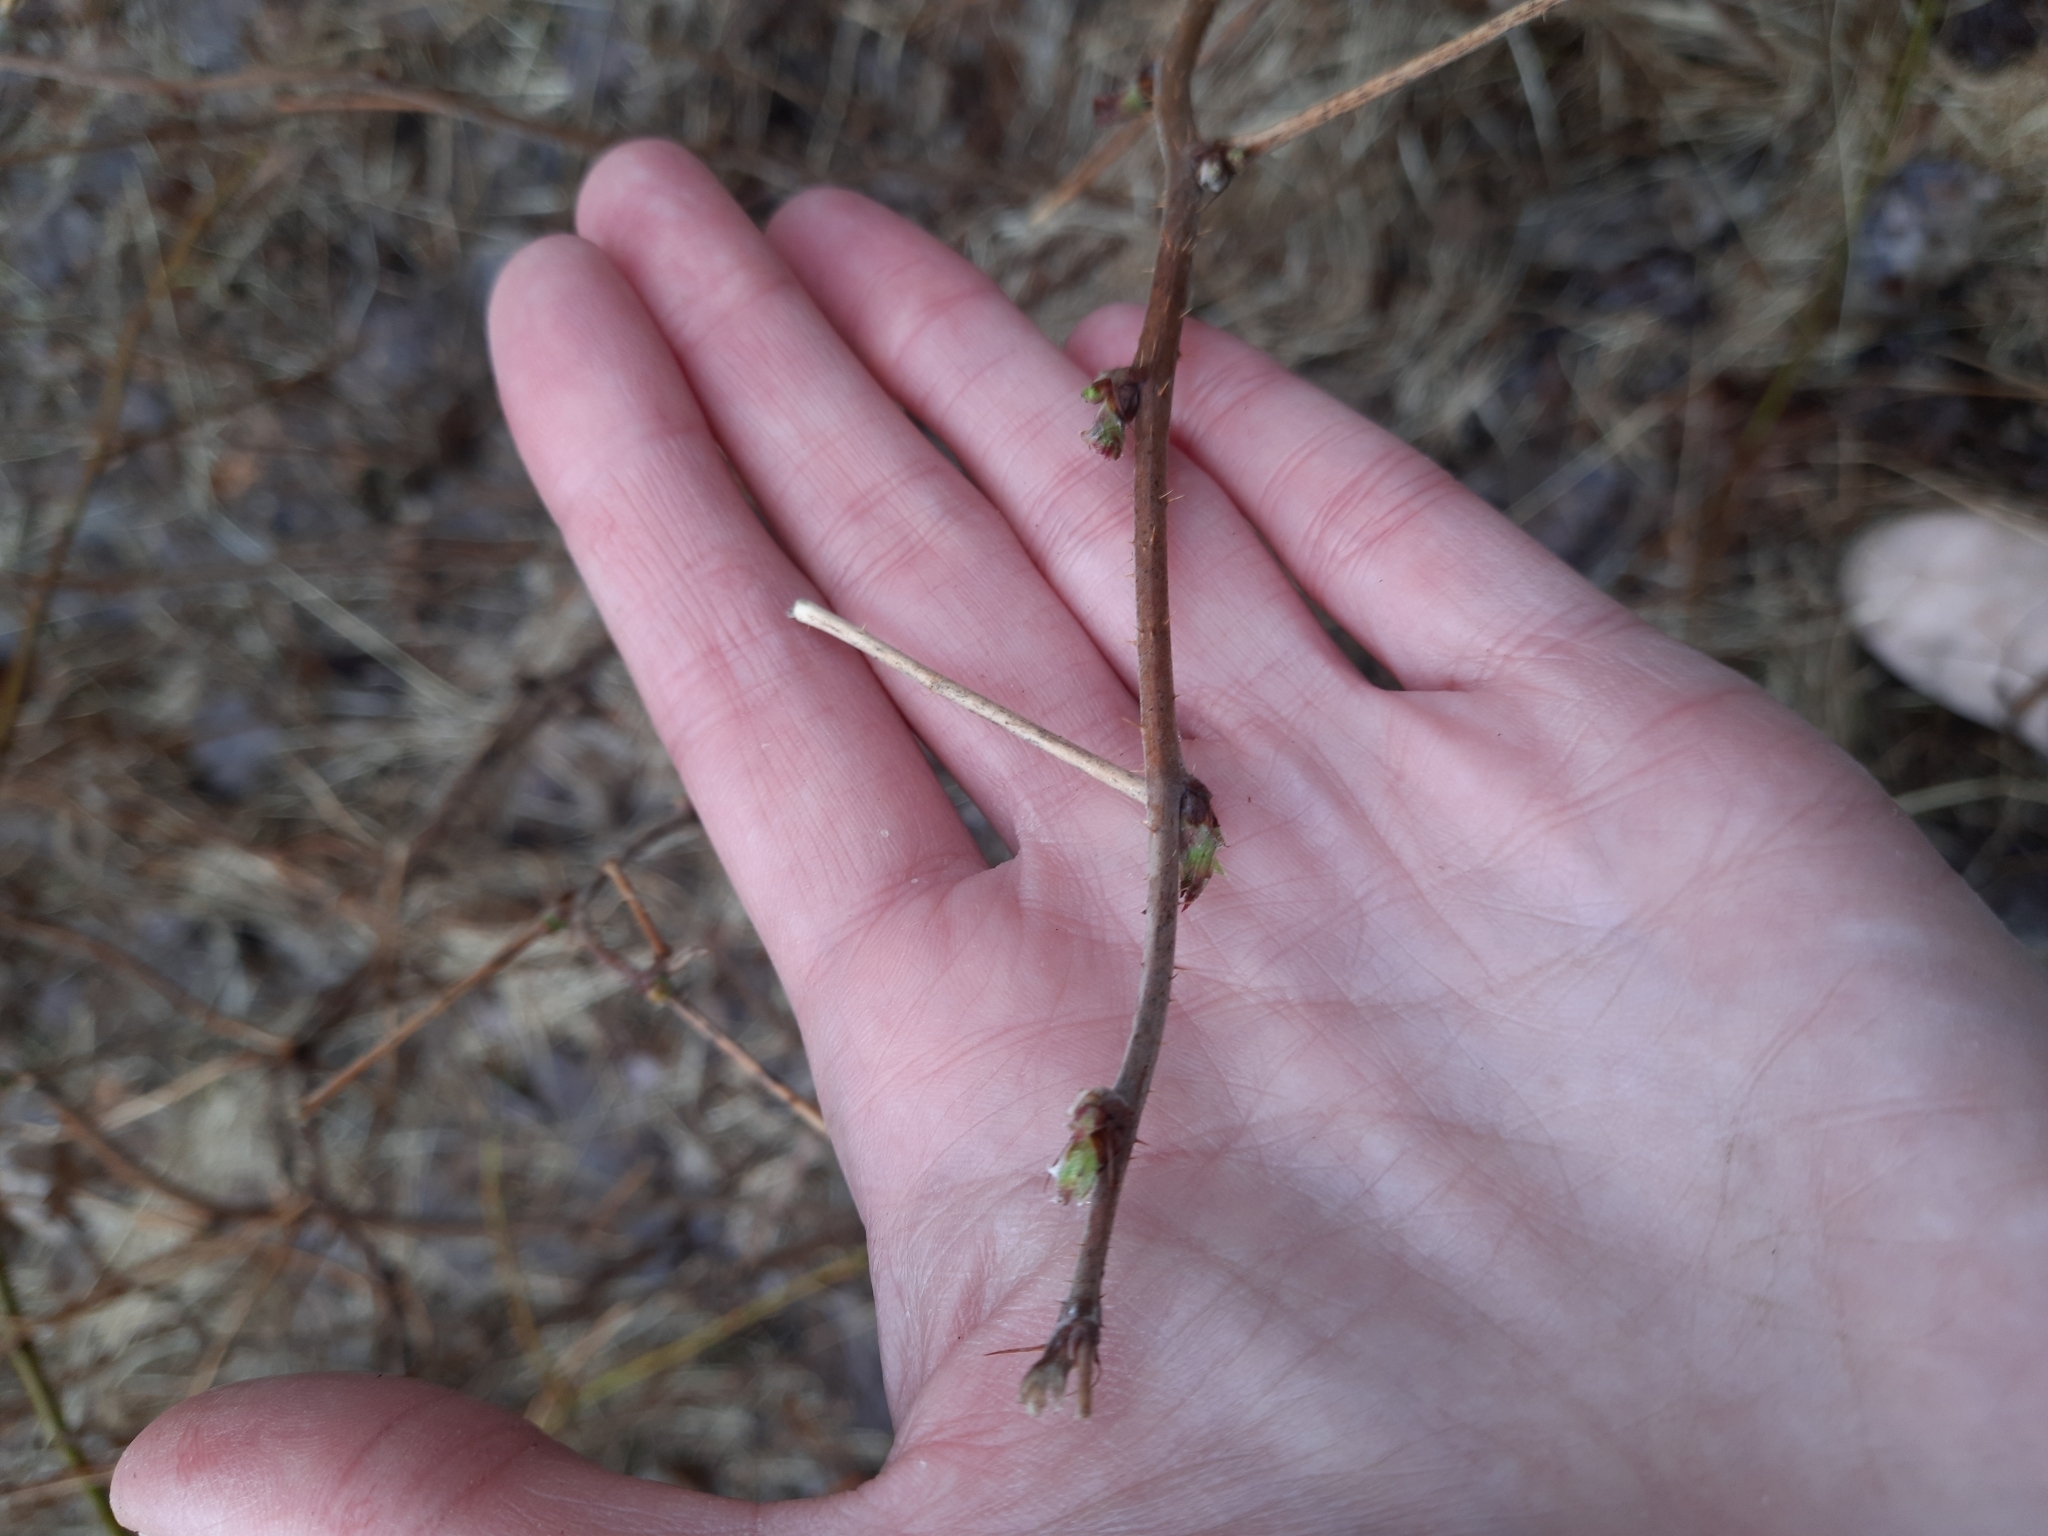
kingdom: Plantae
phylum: Tracheophyta
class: Magnoliopsida
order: Rosales
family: Rosaceae
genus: Rubus
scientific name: Rubus idaeus
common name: Raspberry
